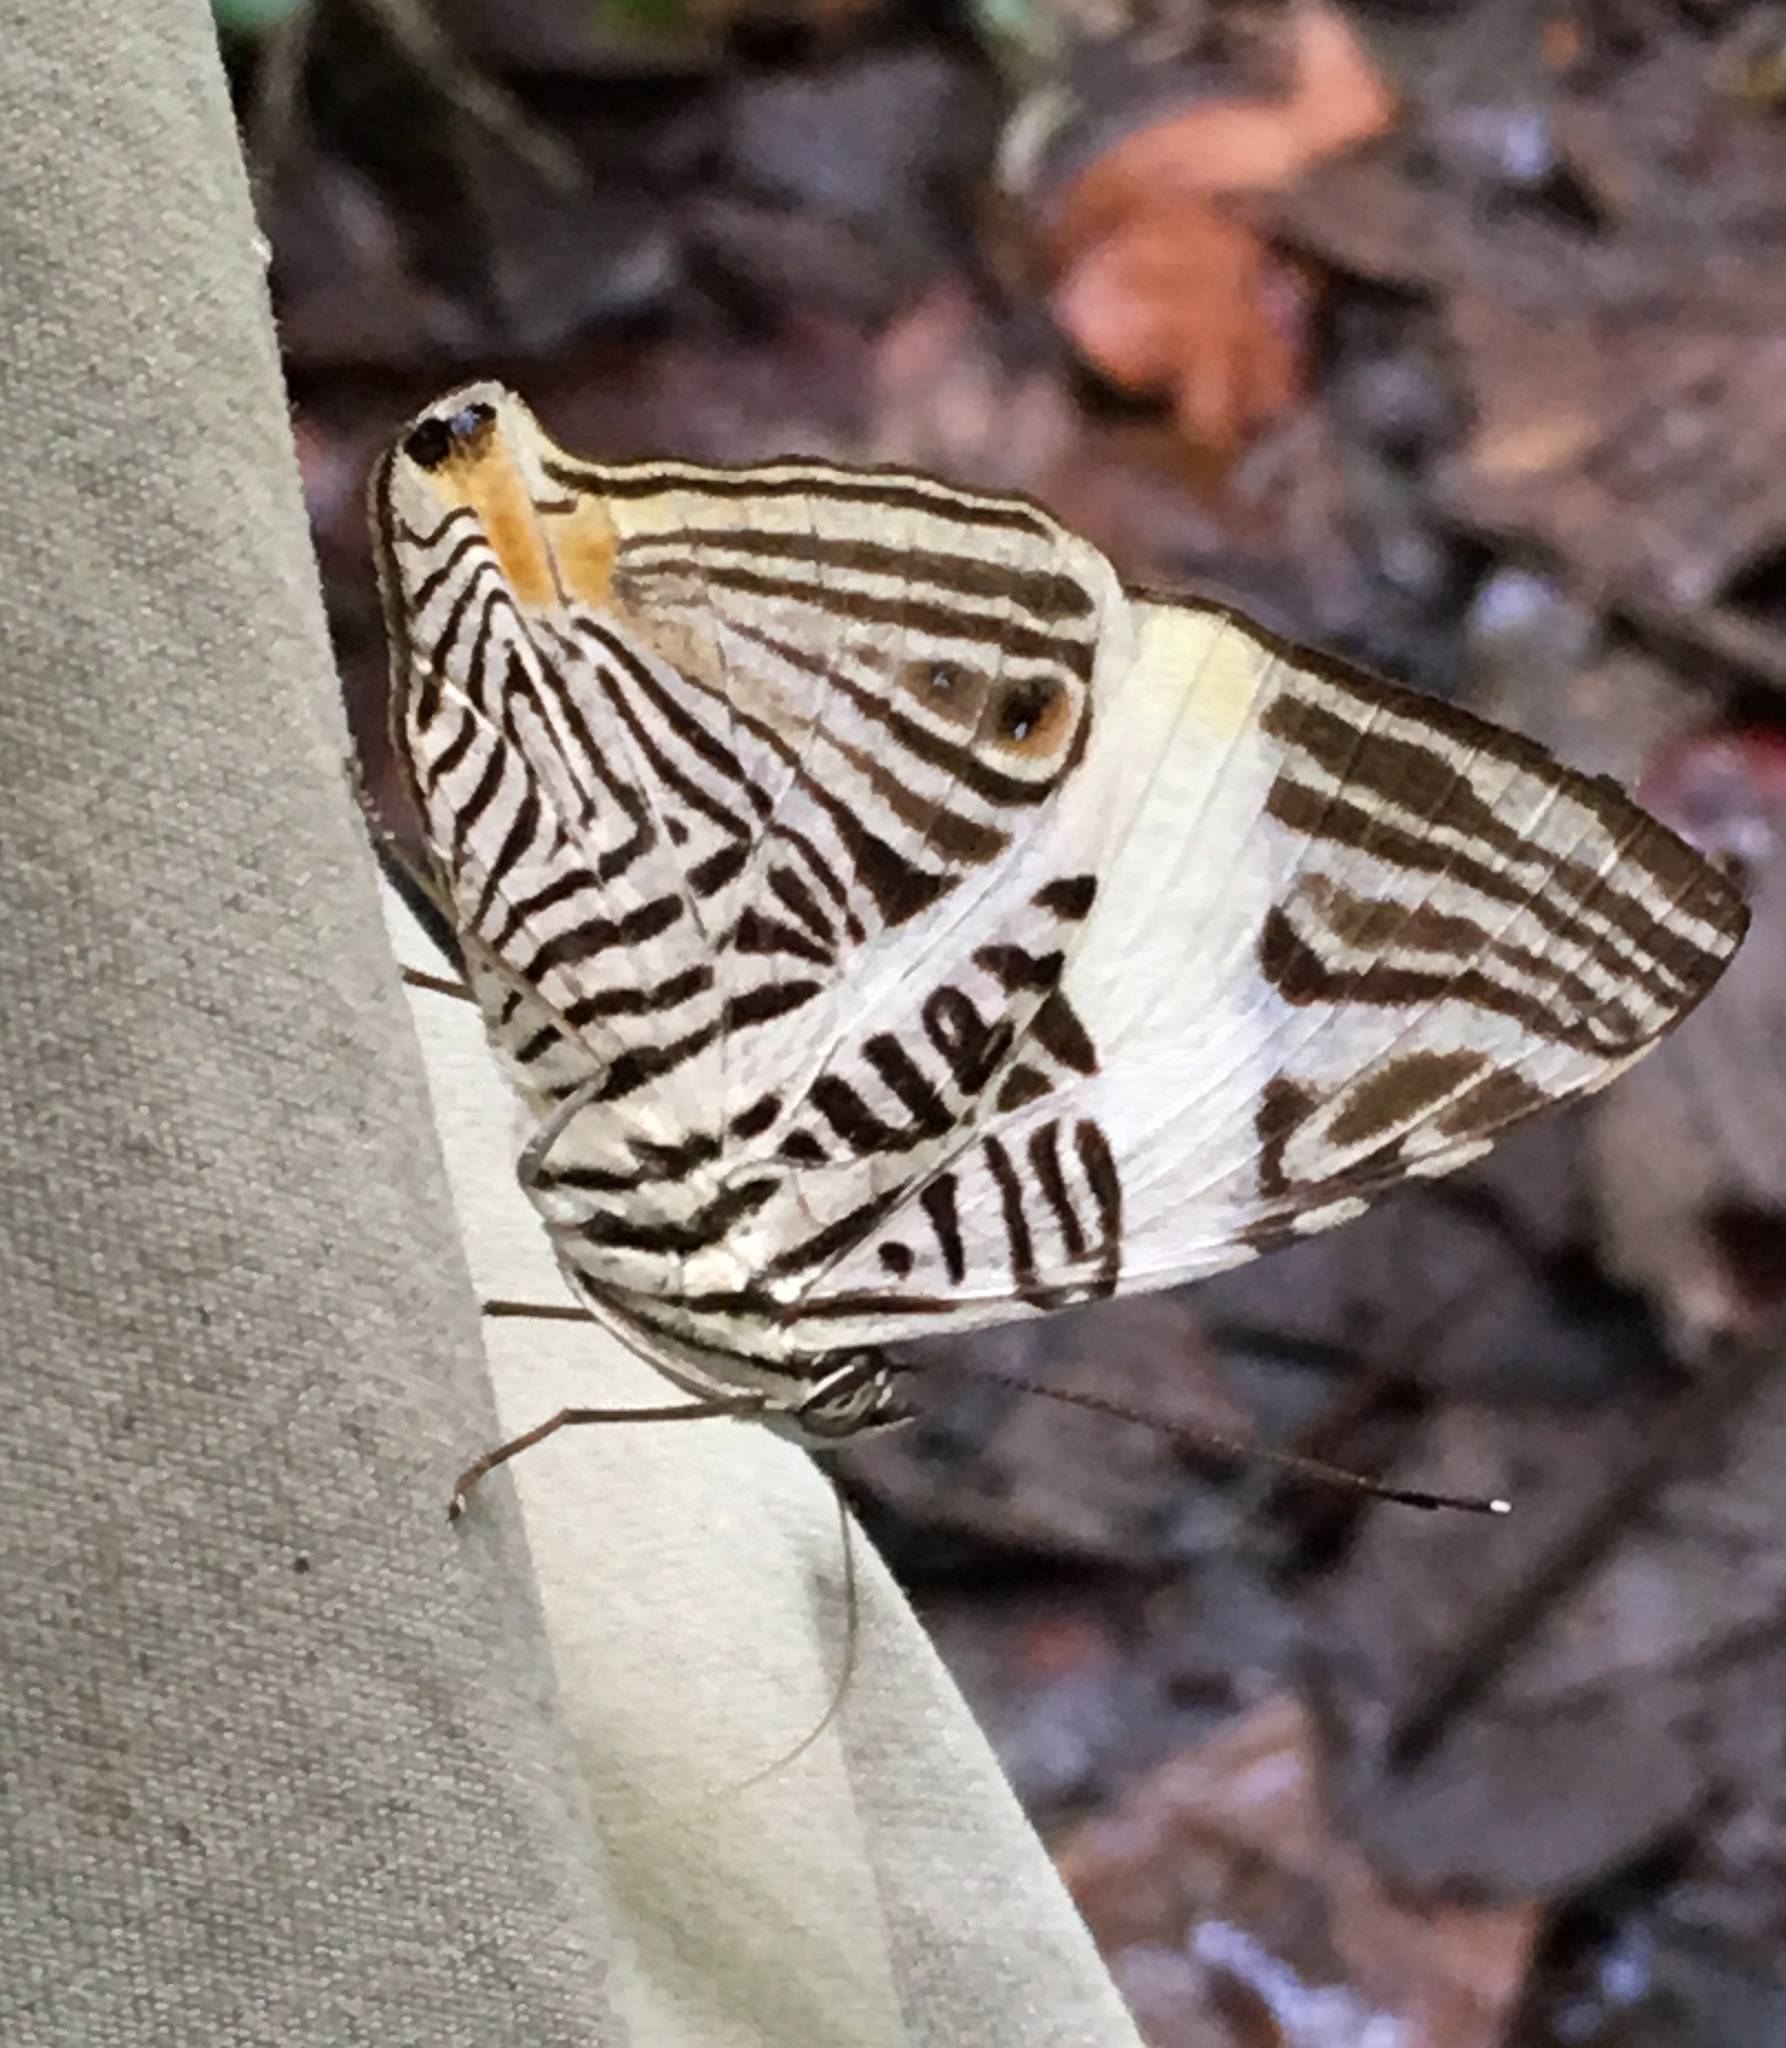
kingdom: Animalia
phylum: Arthropoda
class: Insecta
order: Lepidoptera
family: Nymphalidae
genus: Colobura
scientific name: Colobura dirce
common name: Dirce beauty
